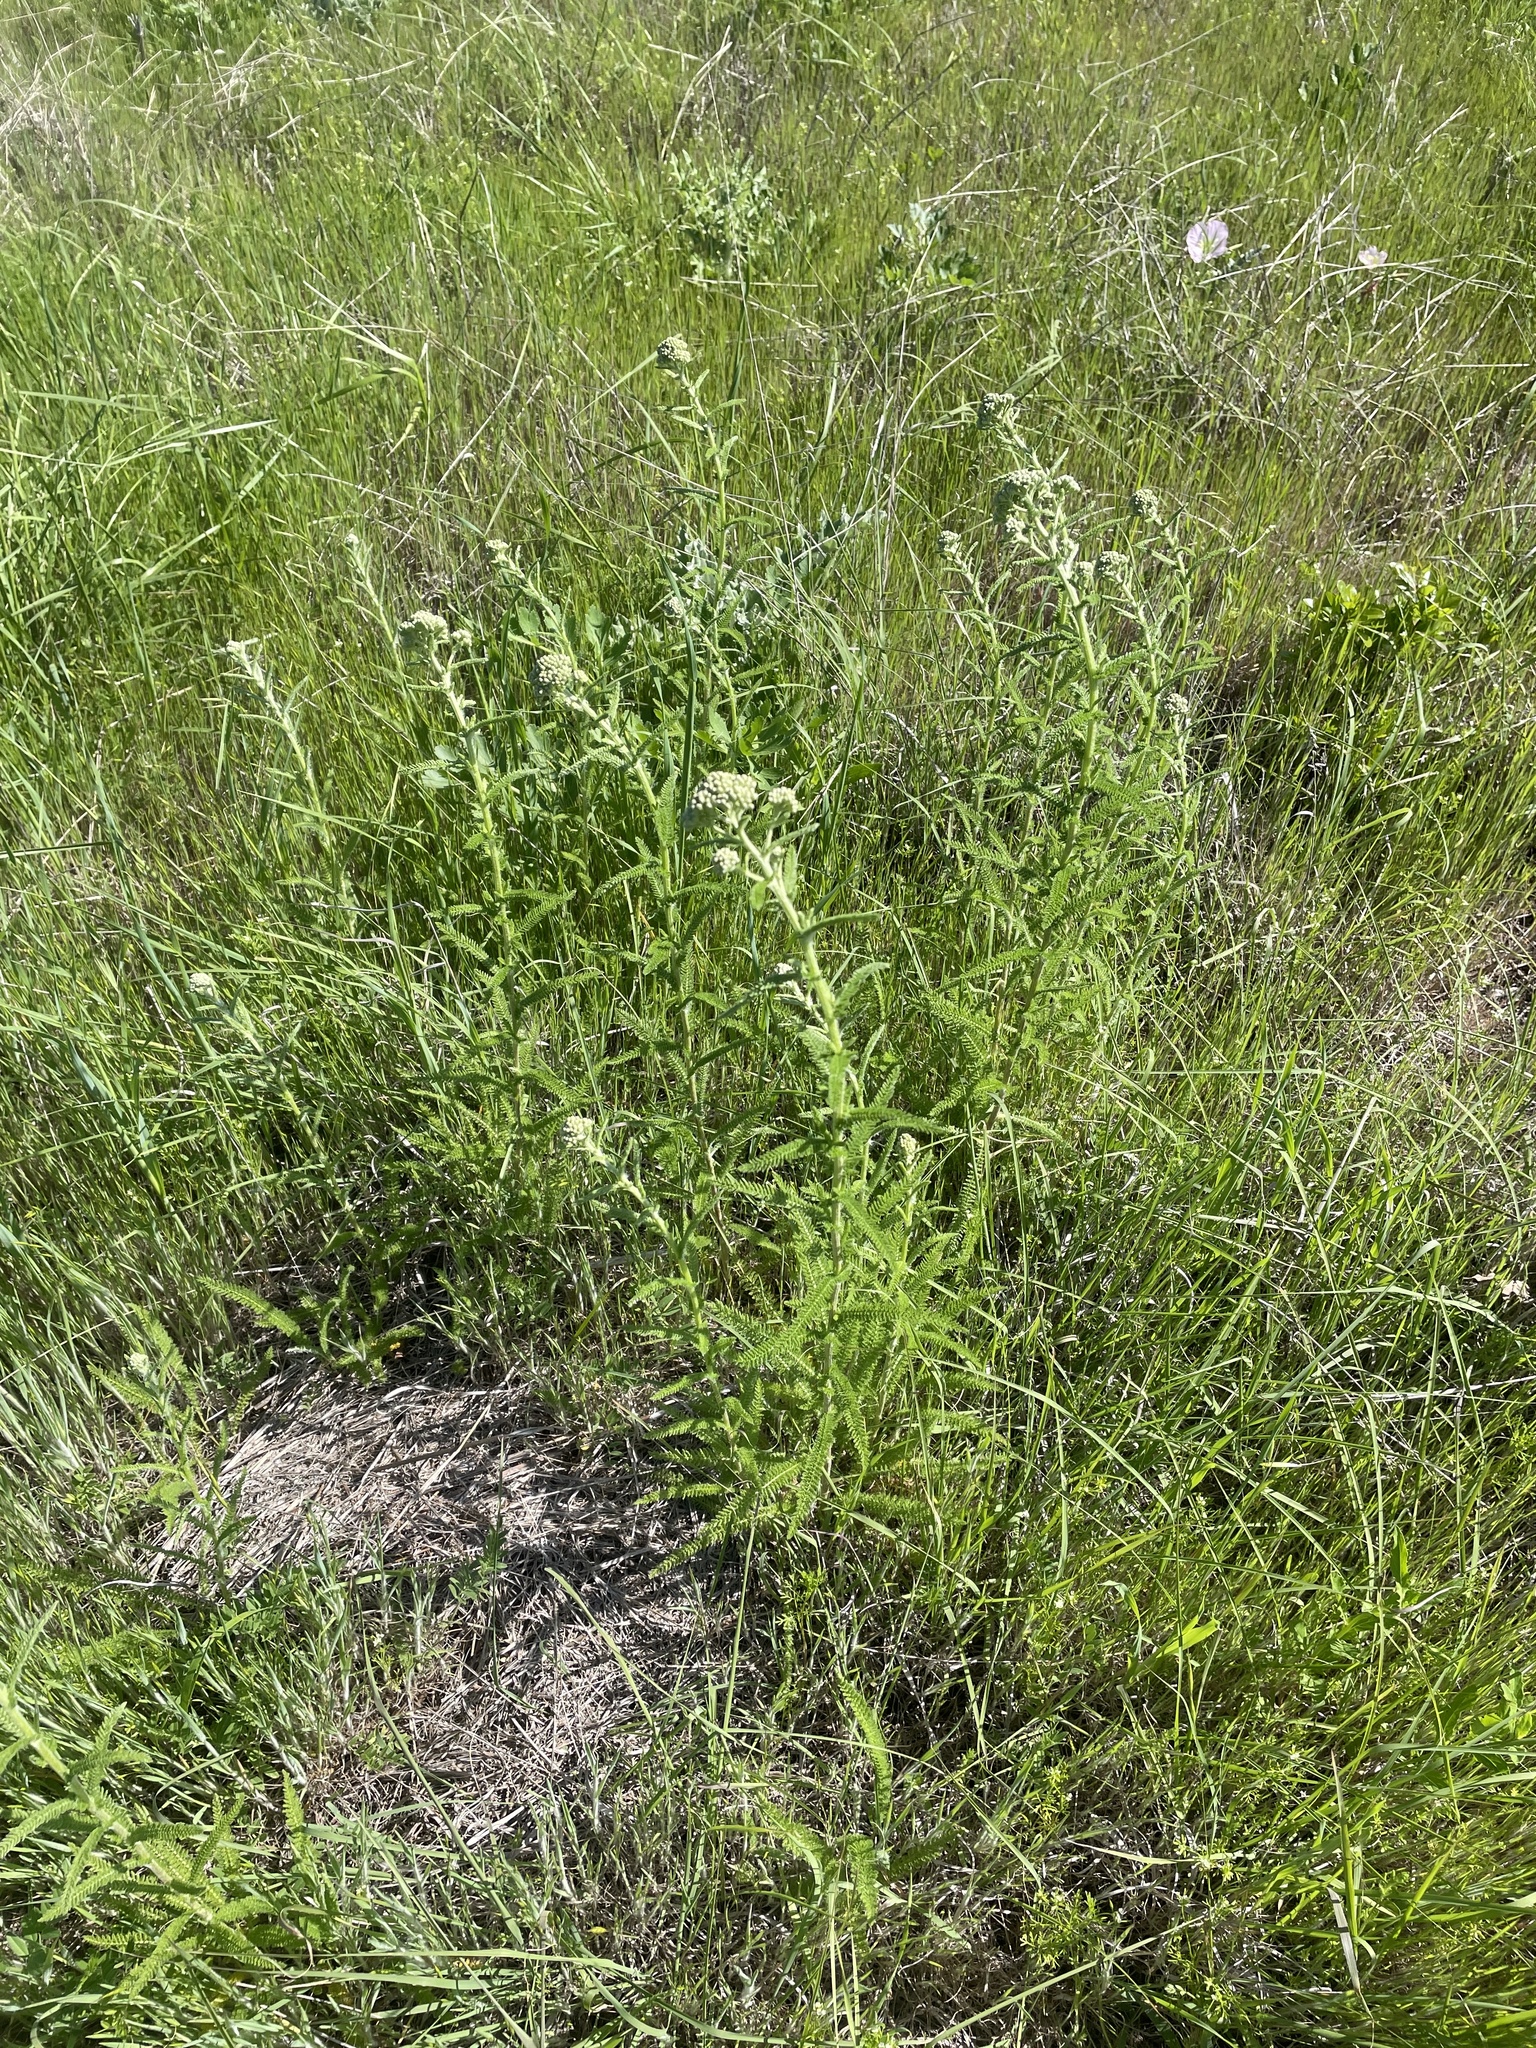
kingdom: Plantae
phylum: Tracheophyta
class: Magnoliopsida
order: Asterales
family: Asteraceae
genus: Achillea
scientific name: Achillea millefolium
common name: Yarrow
